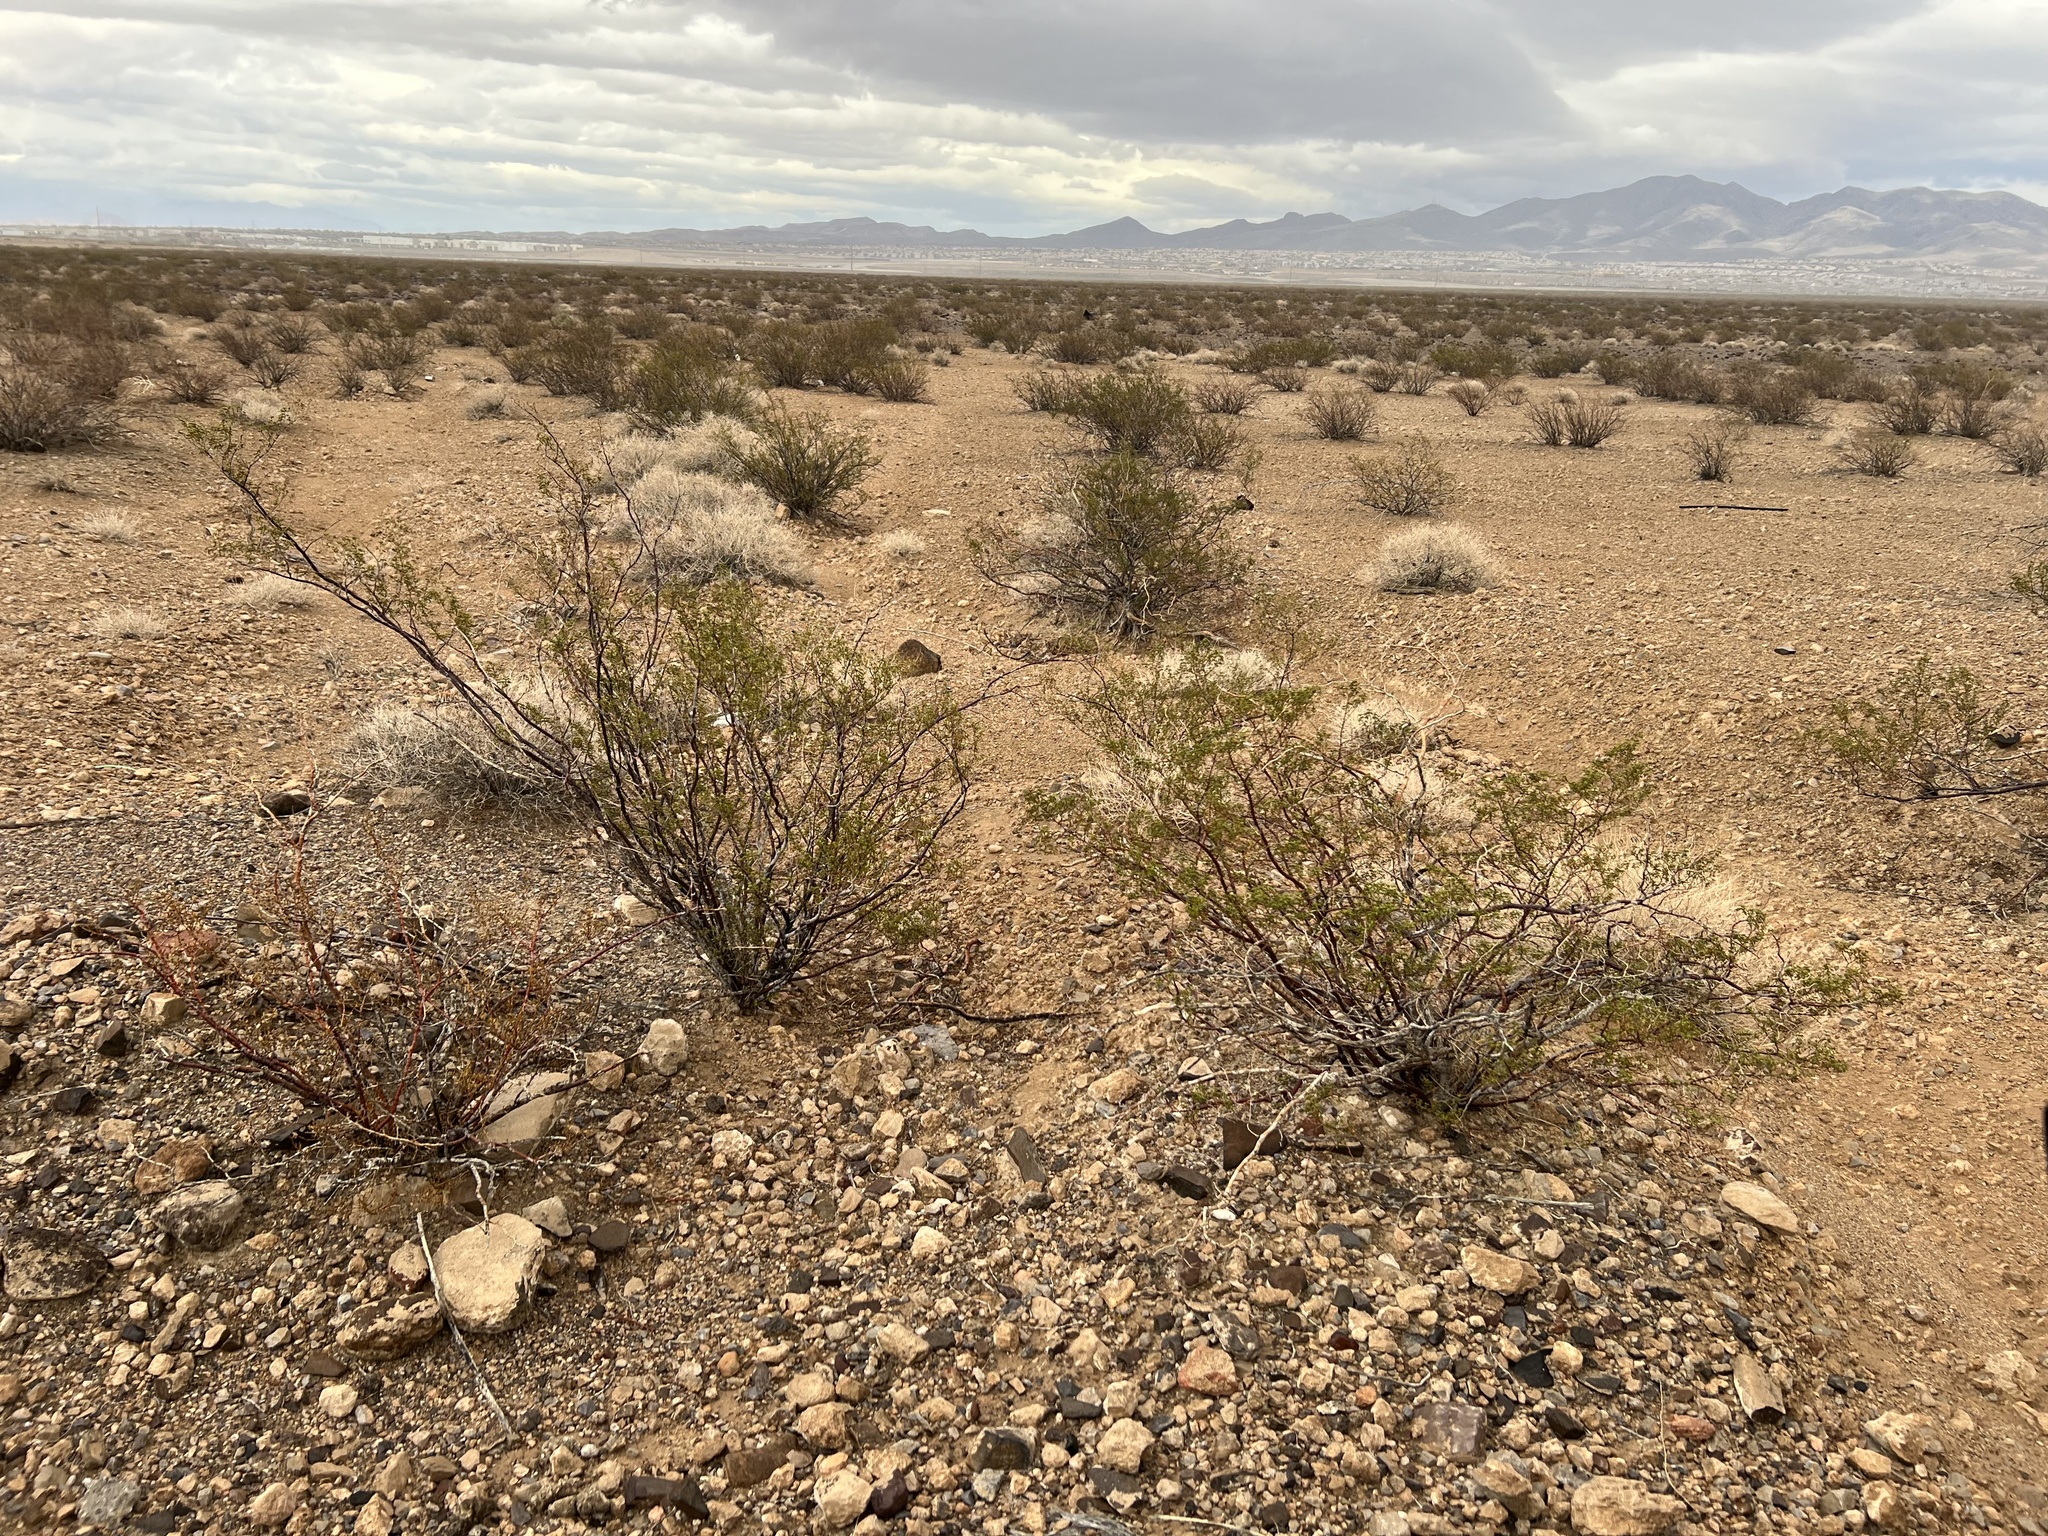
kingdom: Plantae
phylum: Tracheophyta
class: Magnoliopsida
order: Zygophyllales
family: Zygophyllaceae
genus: Larrea
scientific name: Larrea tridentata
